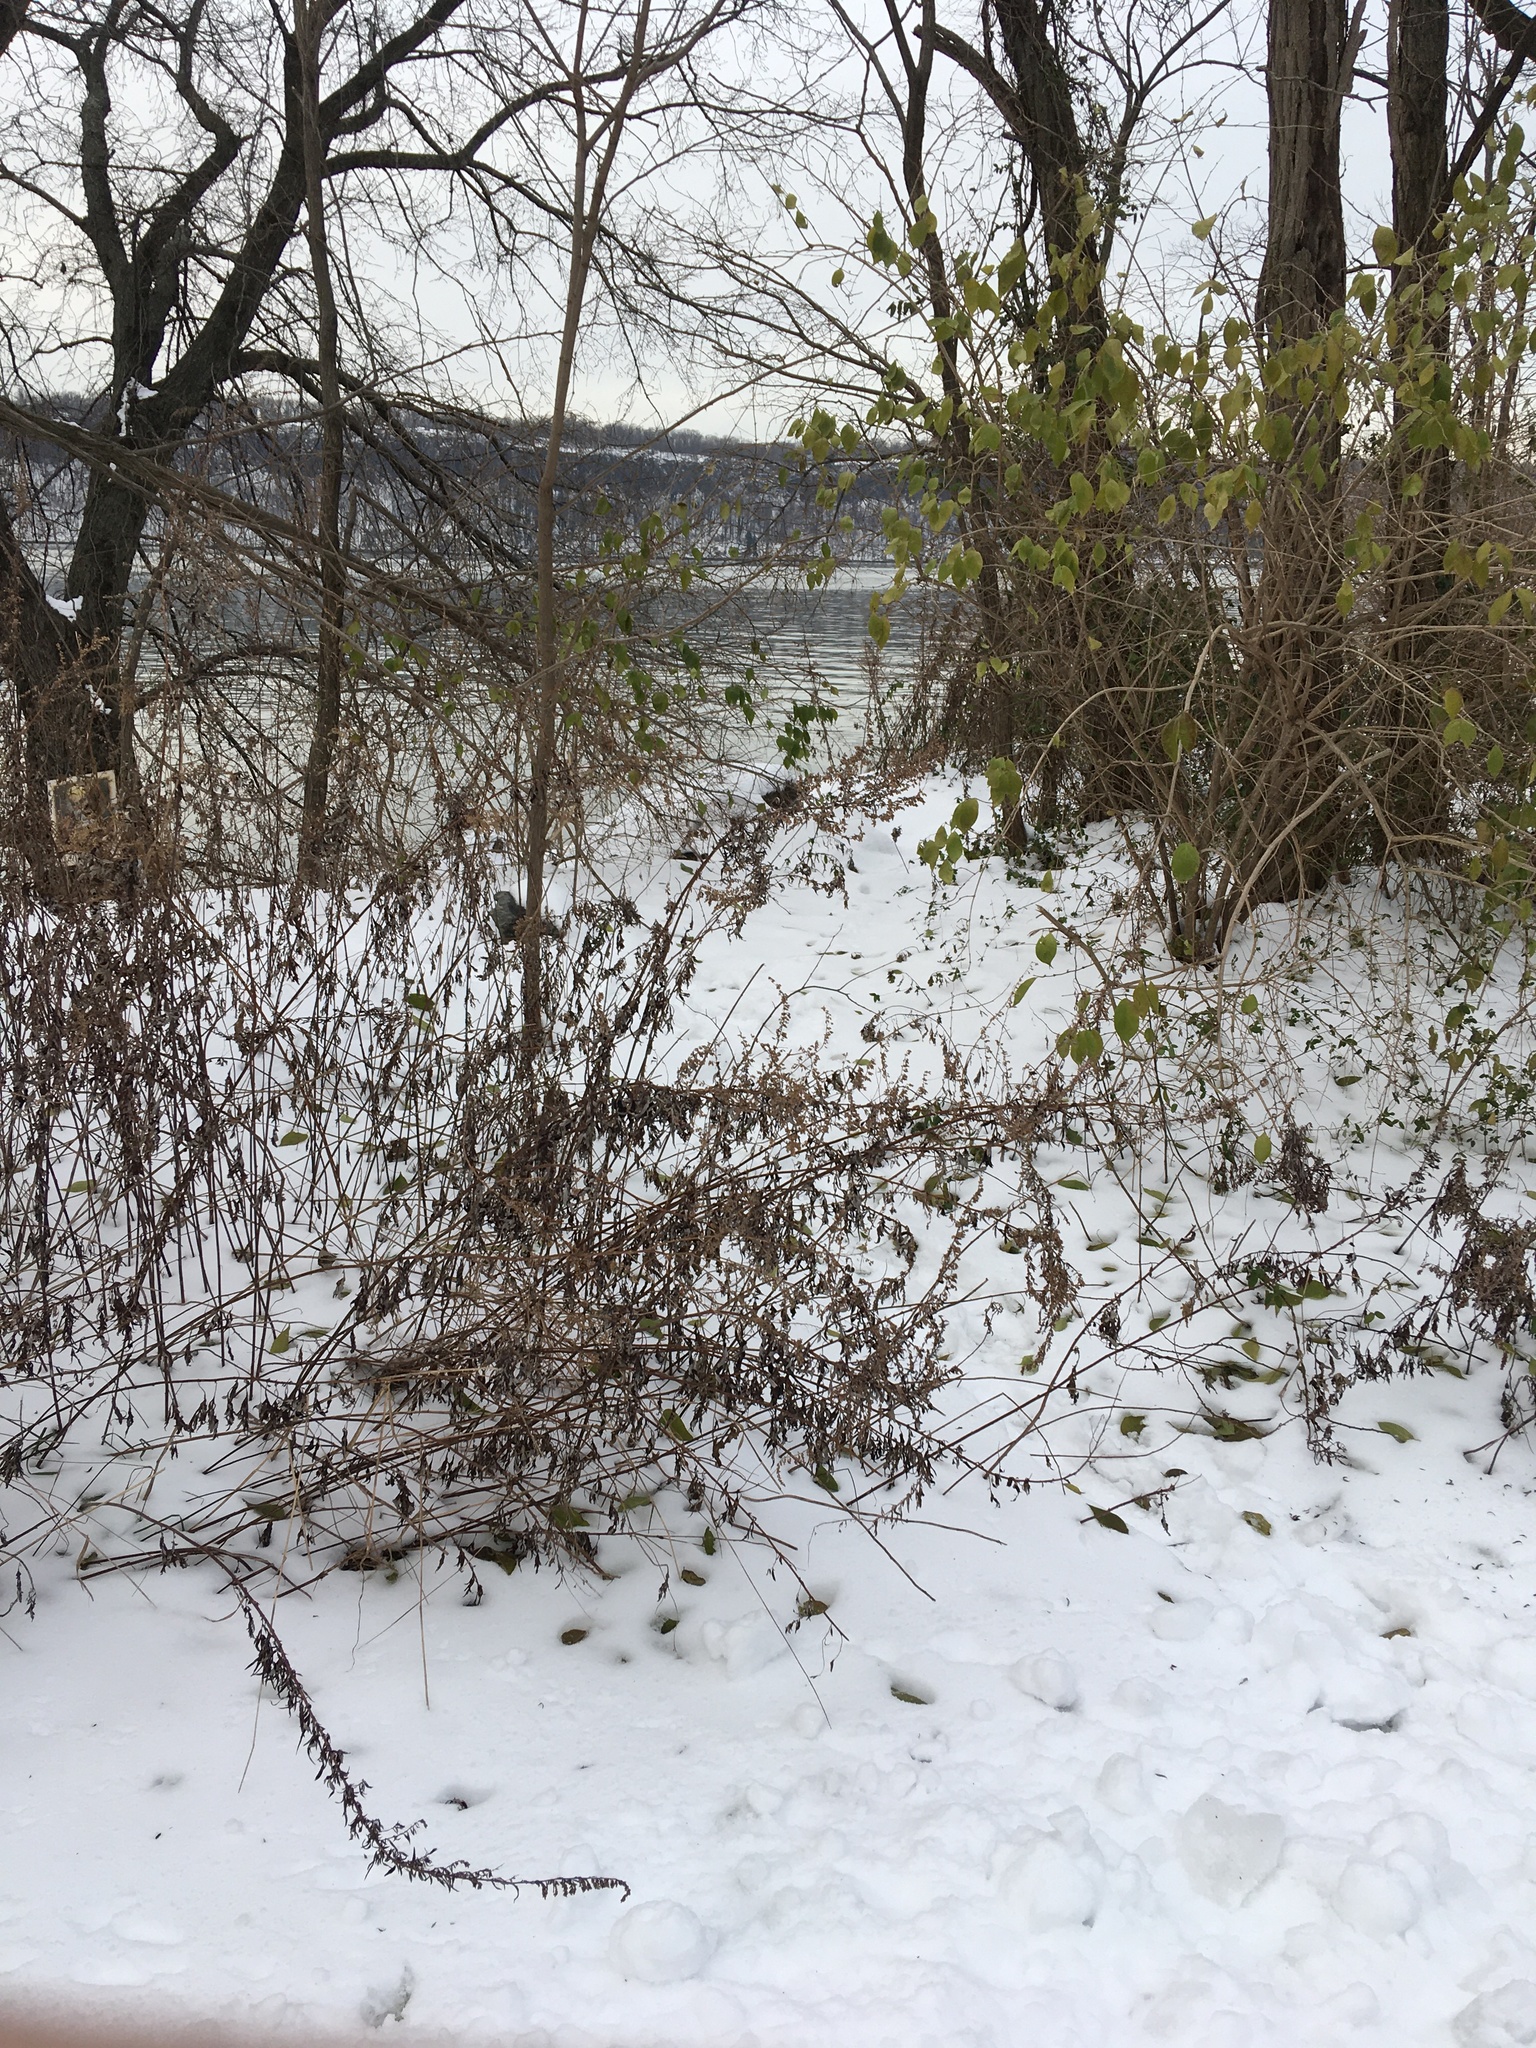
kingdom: Plantae
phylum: Tracheophyta
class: Magnoliopsida
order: Asterales
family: Asteraceae
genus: Artemisia
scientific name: Artemisia vulgaris
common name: Mugwort
